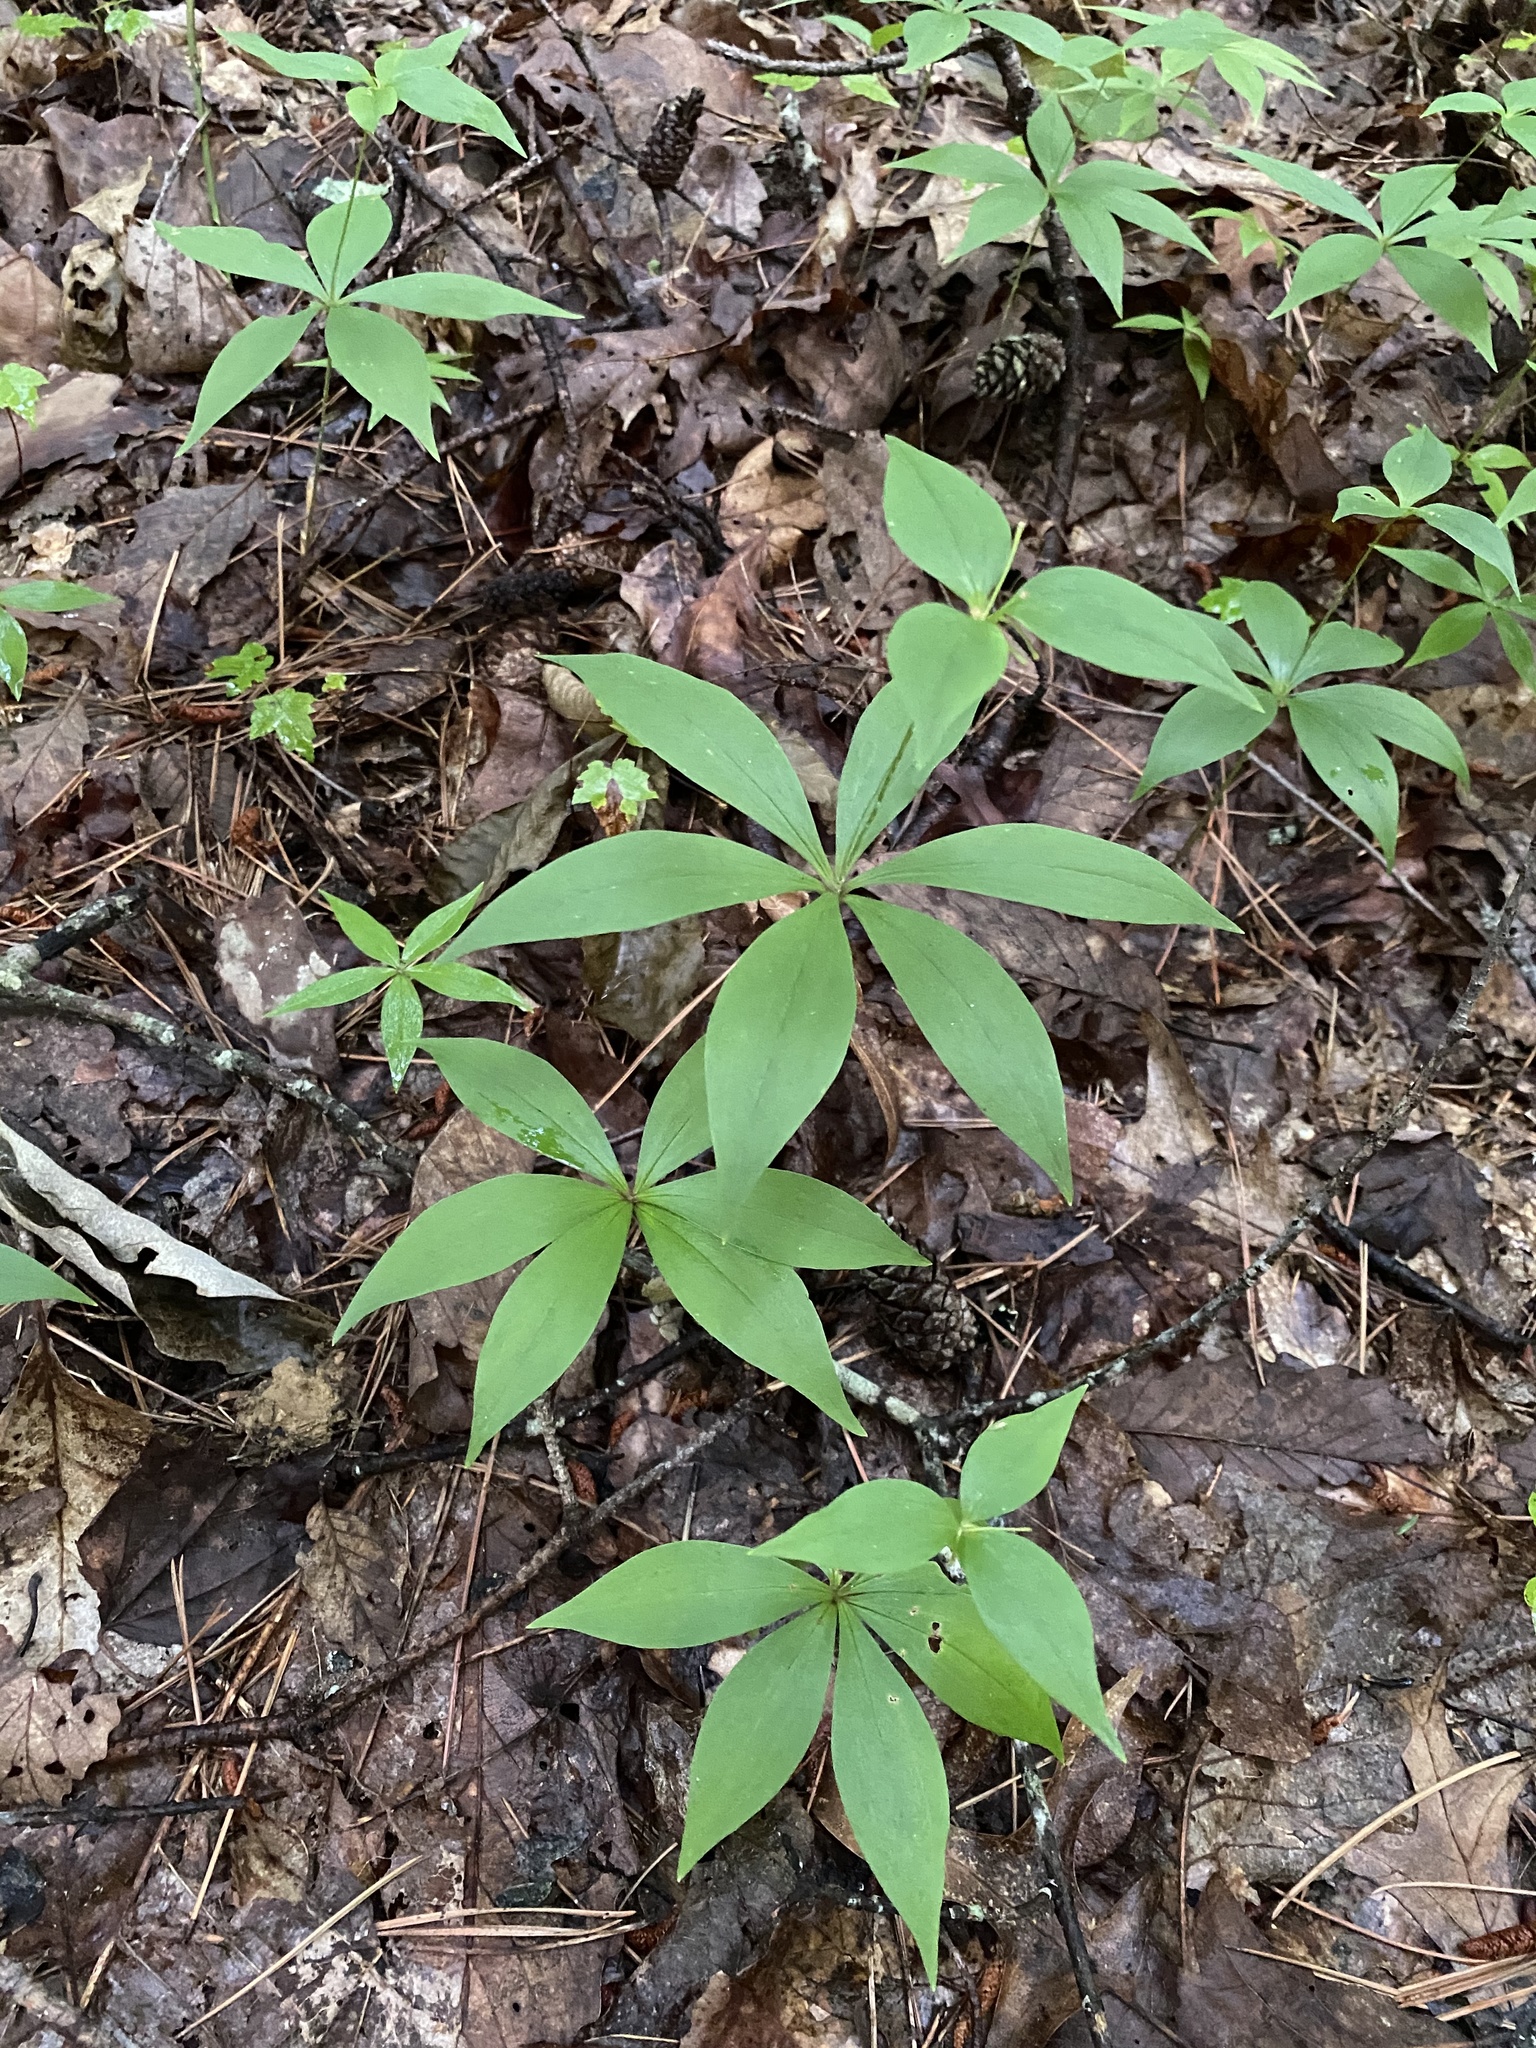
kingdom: Plantae
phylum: Tracheophyta
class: Liliopsida
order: Liliales
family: Liliaceae
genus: Medeola
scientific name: Medeola virginiana
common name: Indian cucumber-root
